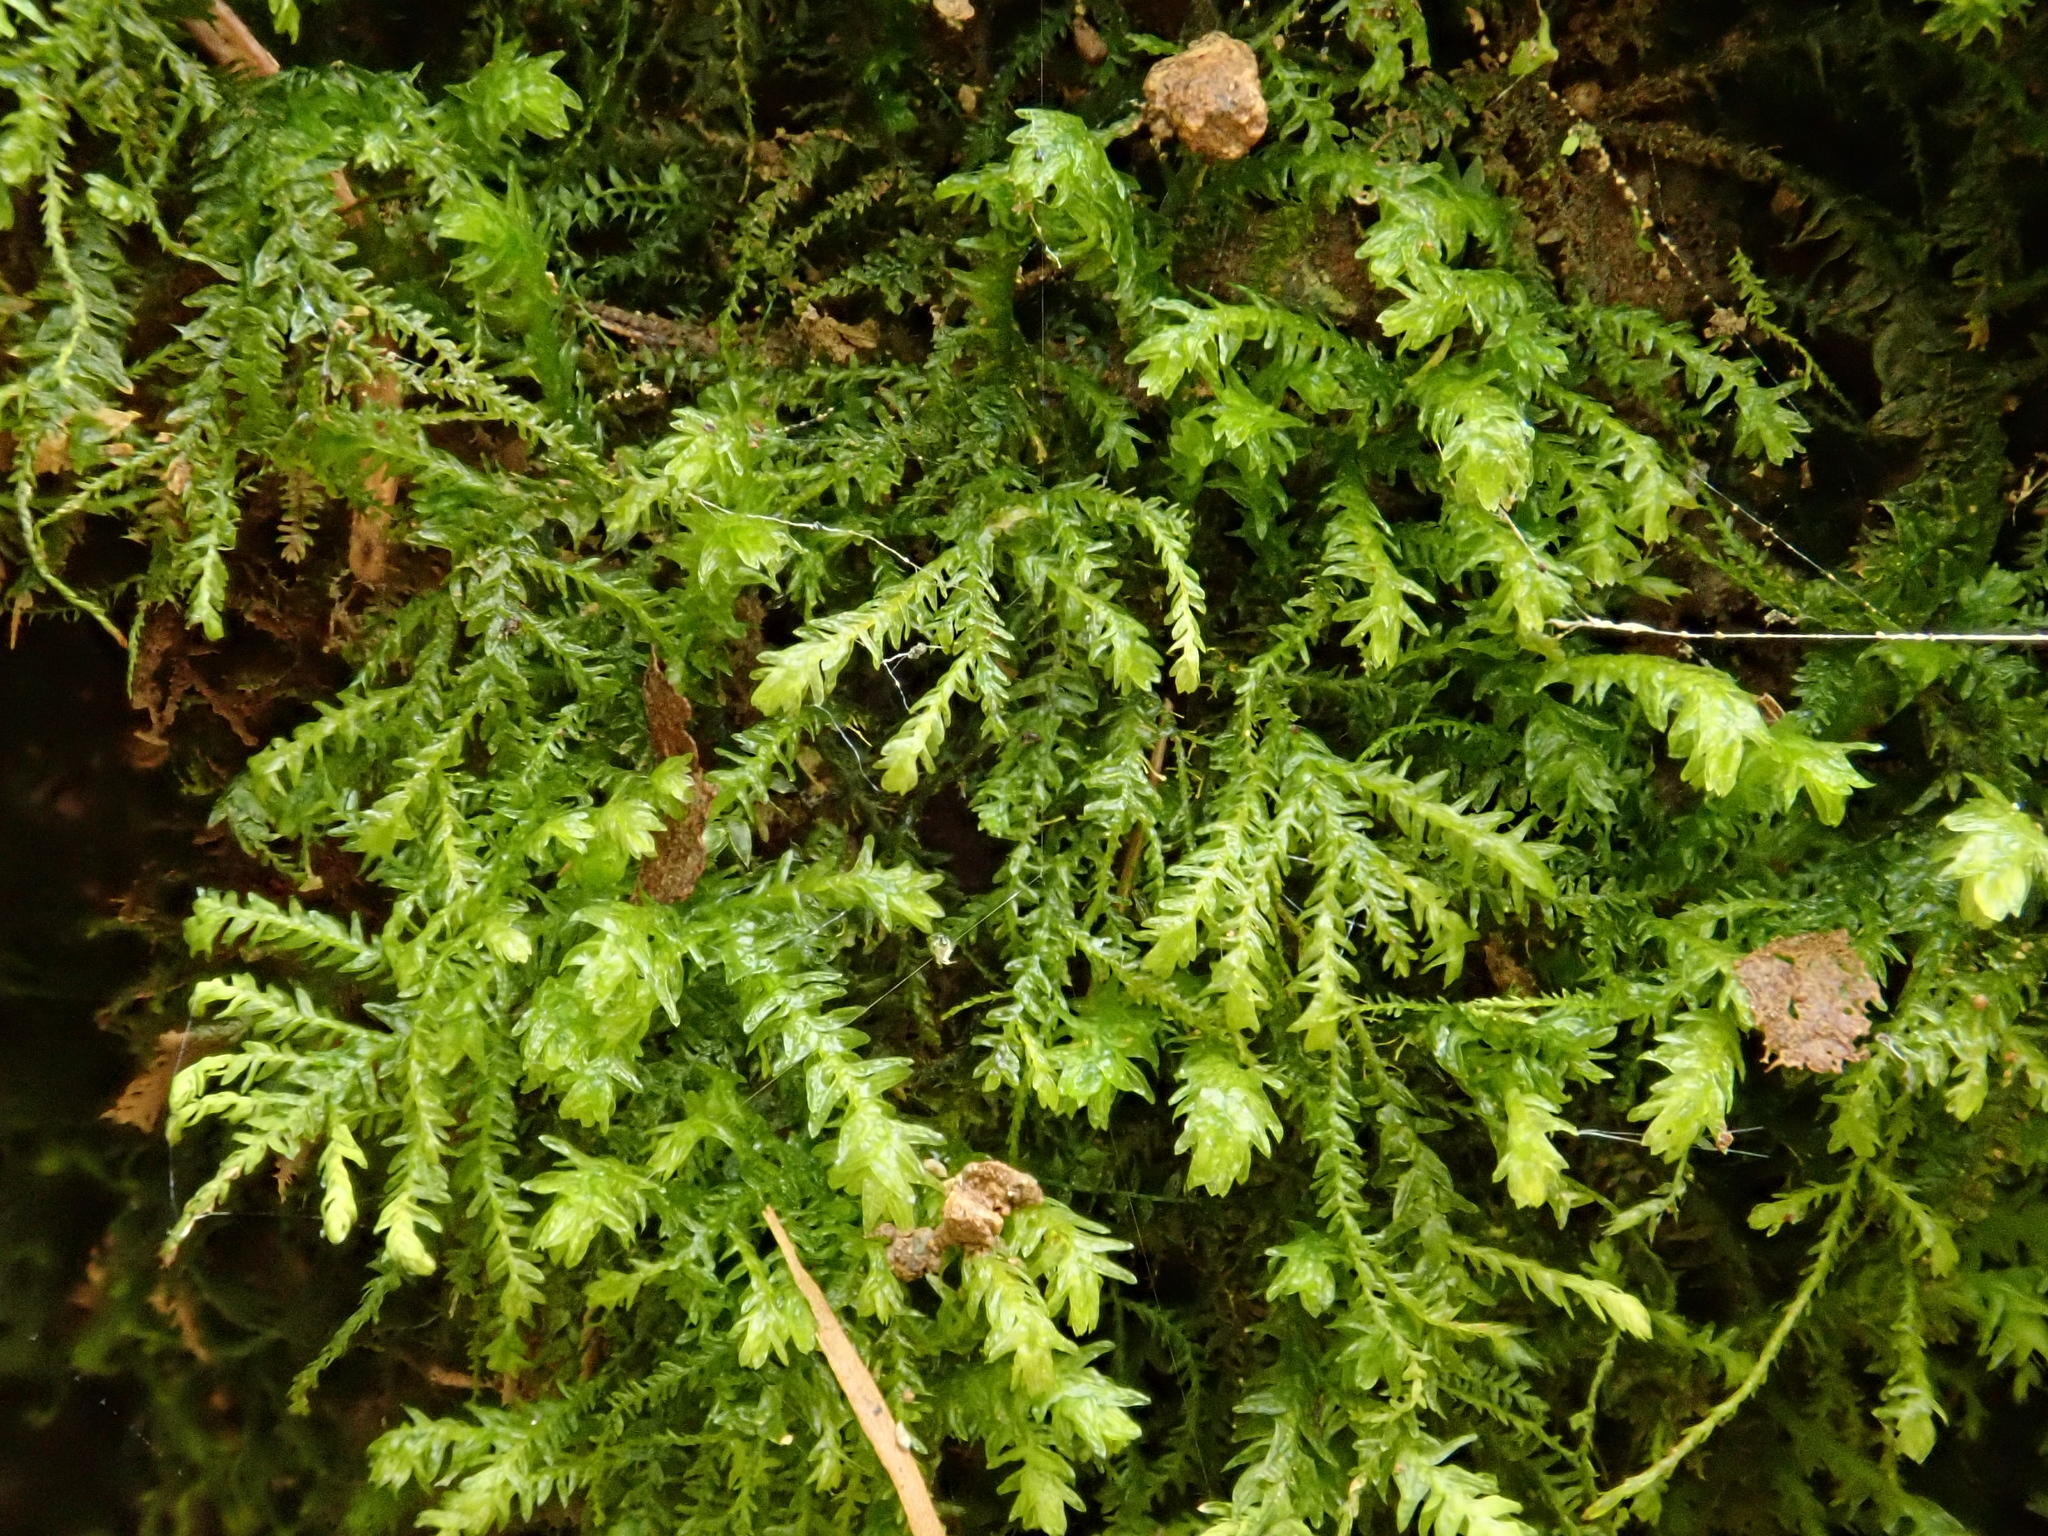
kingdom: Plantae
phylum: Bryophyta
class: Bryopsida
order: Hypnales
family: Neckeraceae
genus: Pseudanomodon
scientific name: Pseudanomodon attenuatus
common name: Tree-skirt moss
